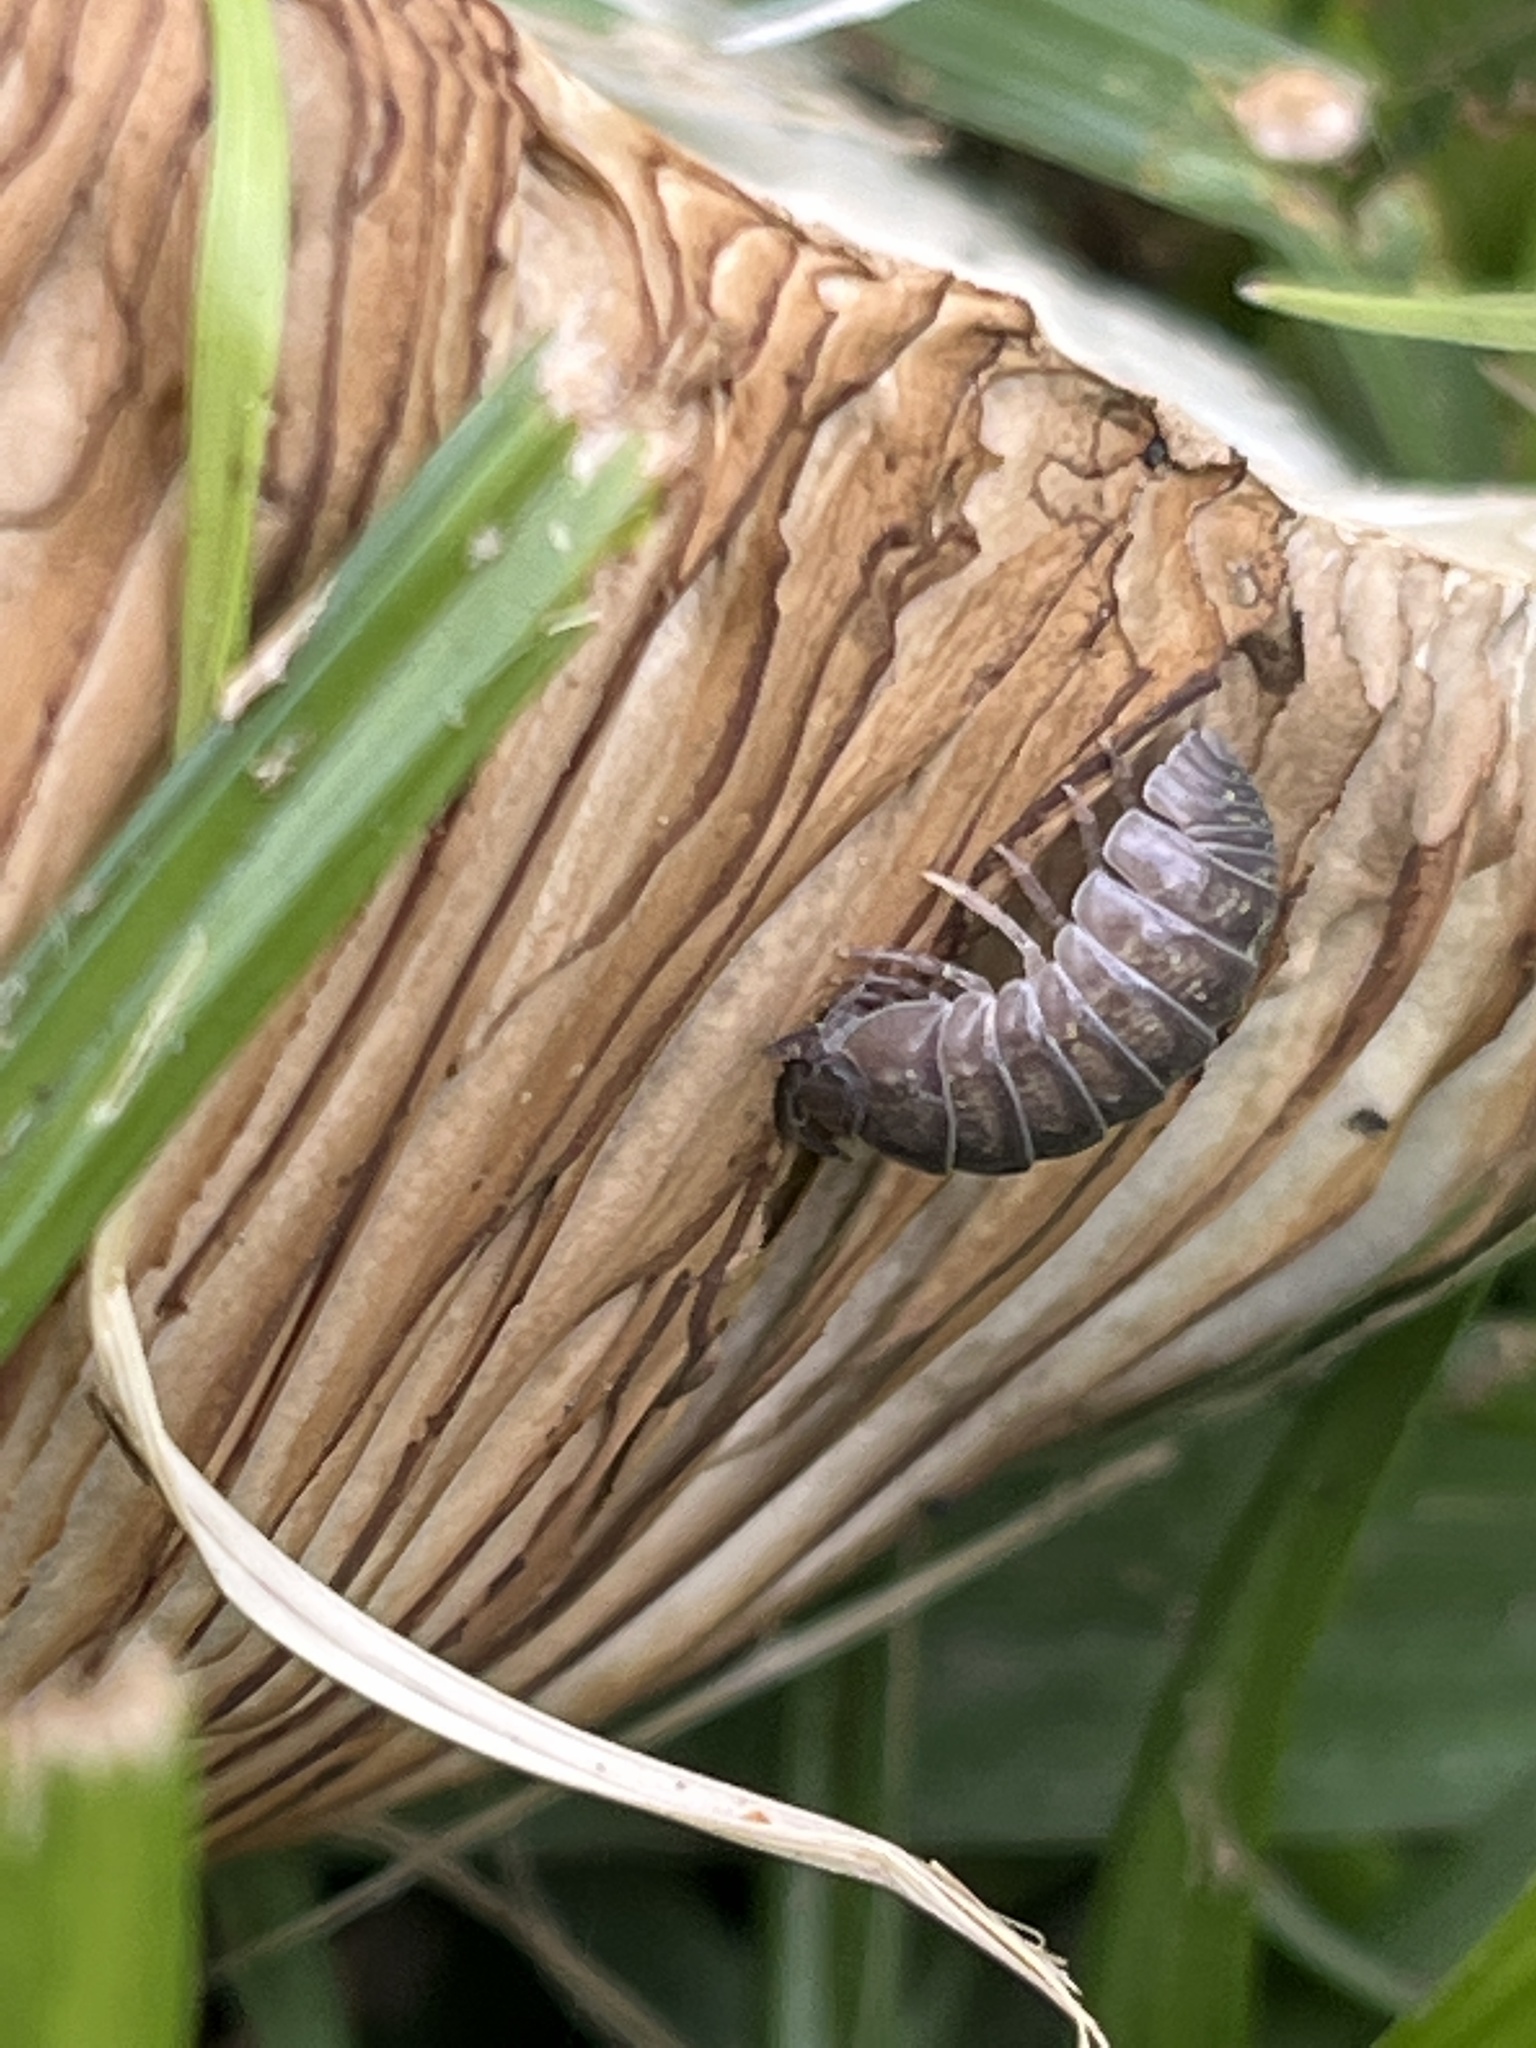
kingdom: Animalia
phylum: Arthropoda
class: Malacostraca
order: Isopoda
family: Armadillidiidae
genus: Armadillidium
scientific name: Armadillidium vulgare
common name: Common pill woodlouse
